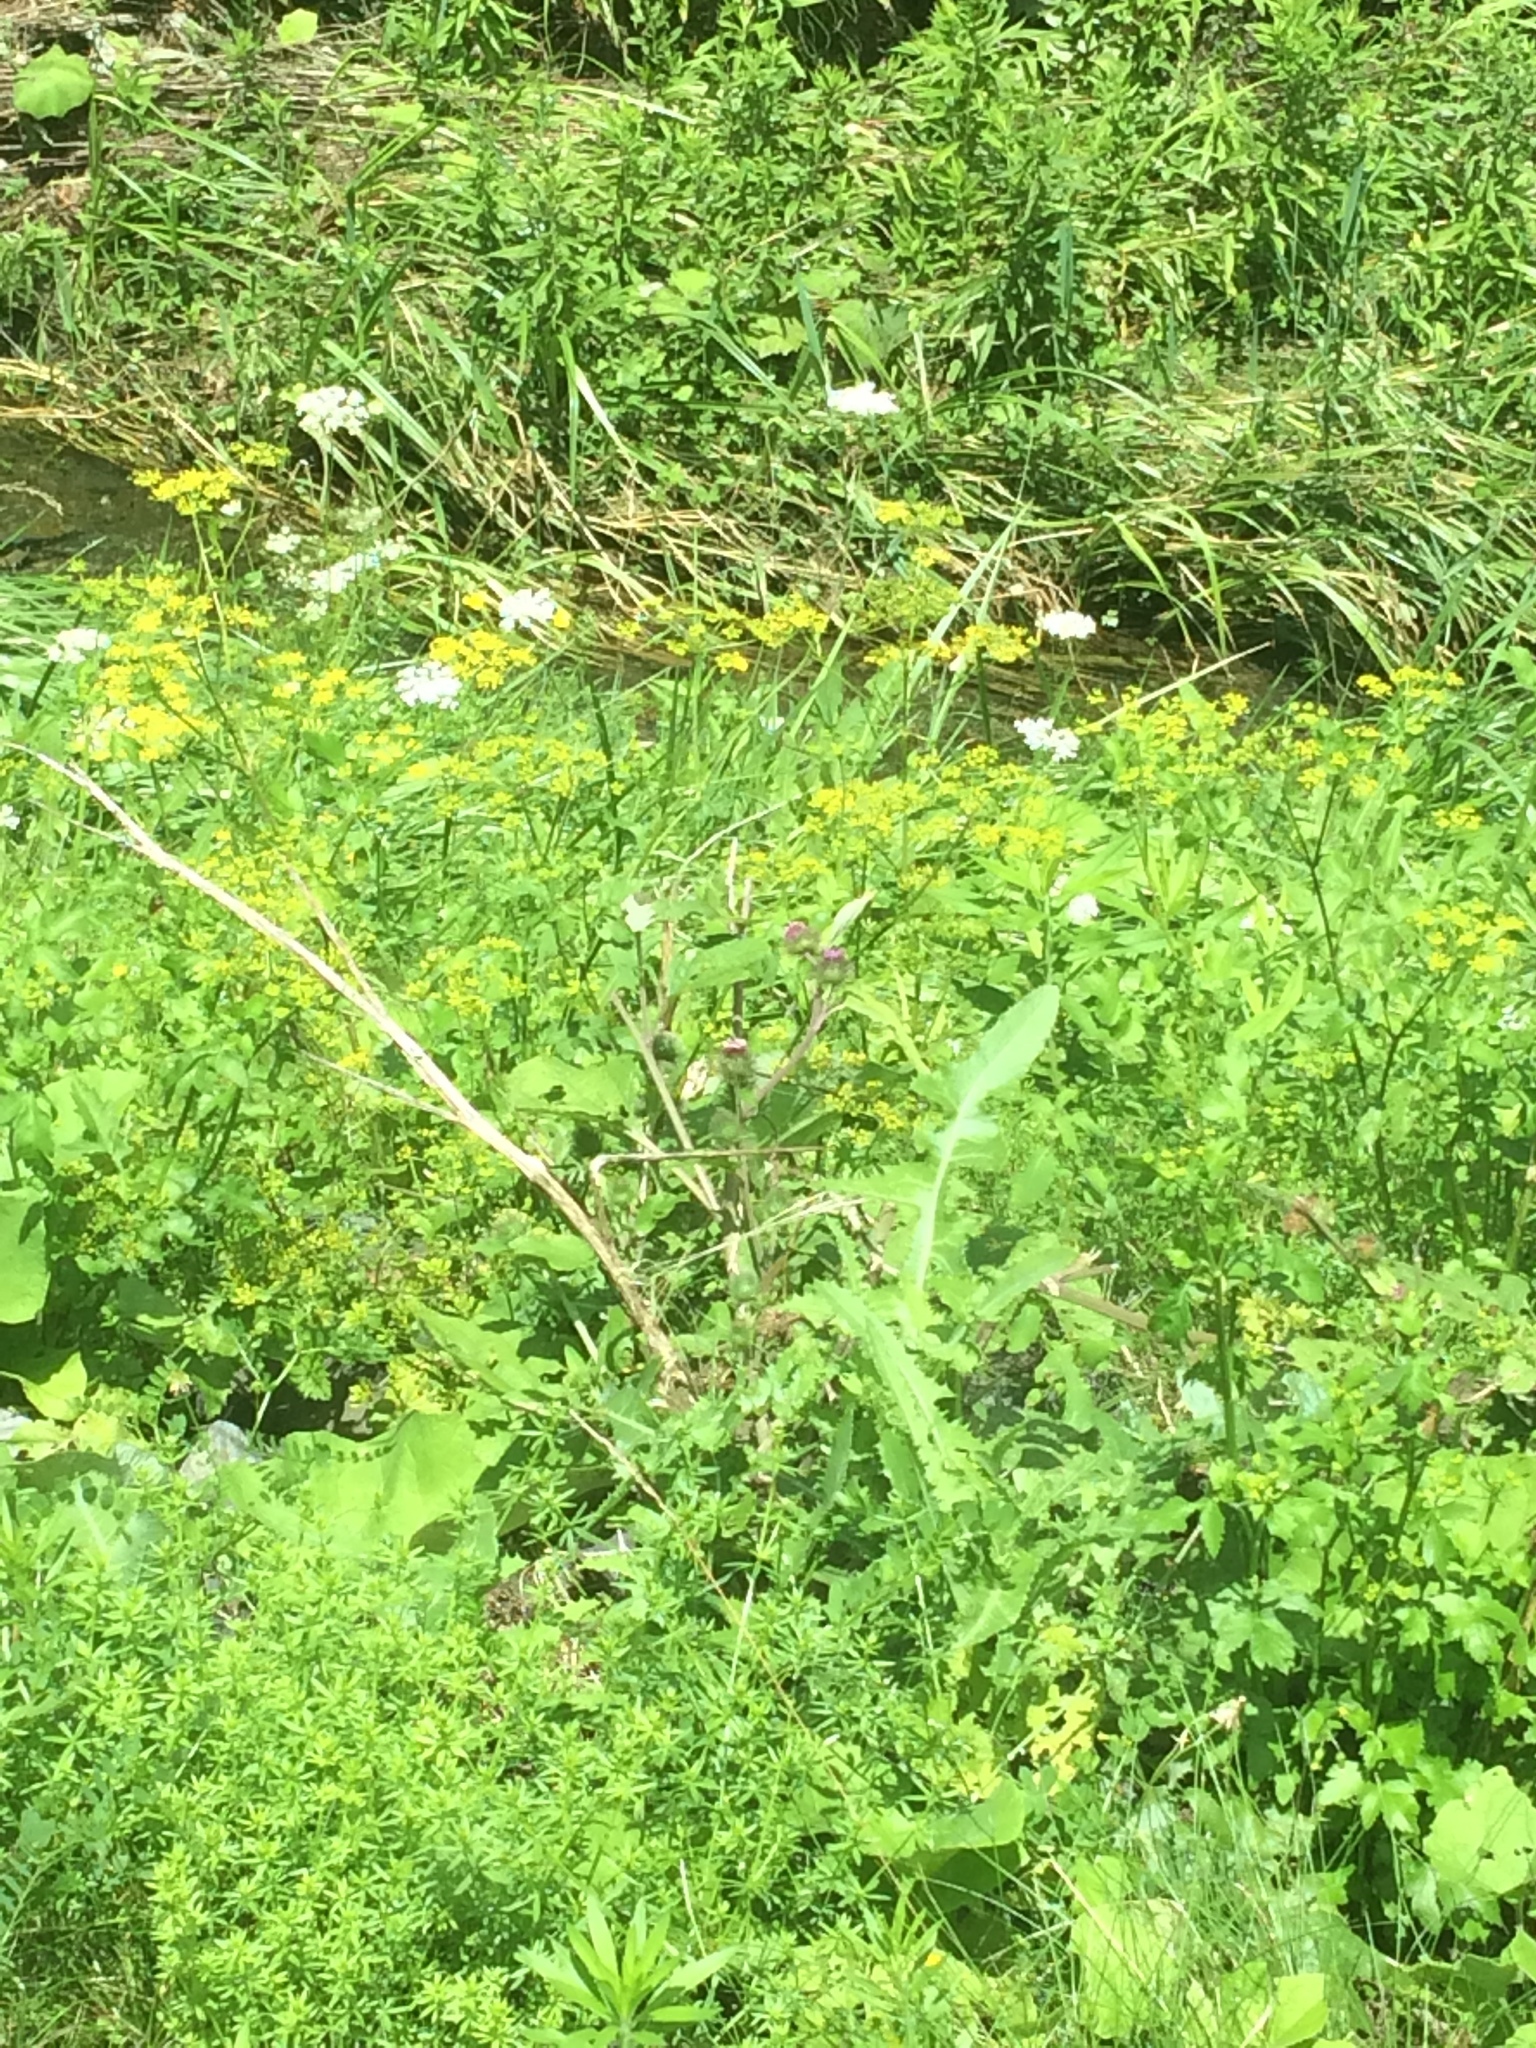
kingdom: Plantae
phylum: Tracheophyta
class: Magnoliopsida
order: Apiales
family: Apiaceae
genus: Pastinaca
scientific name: Pastinaca sativa
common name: Wild parsnip
